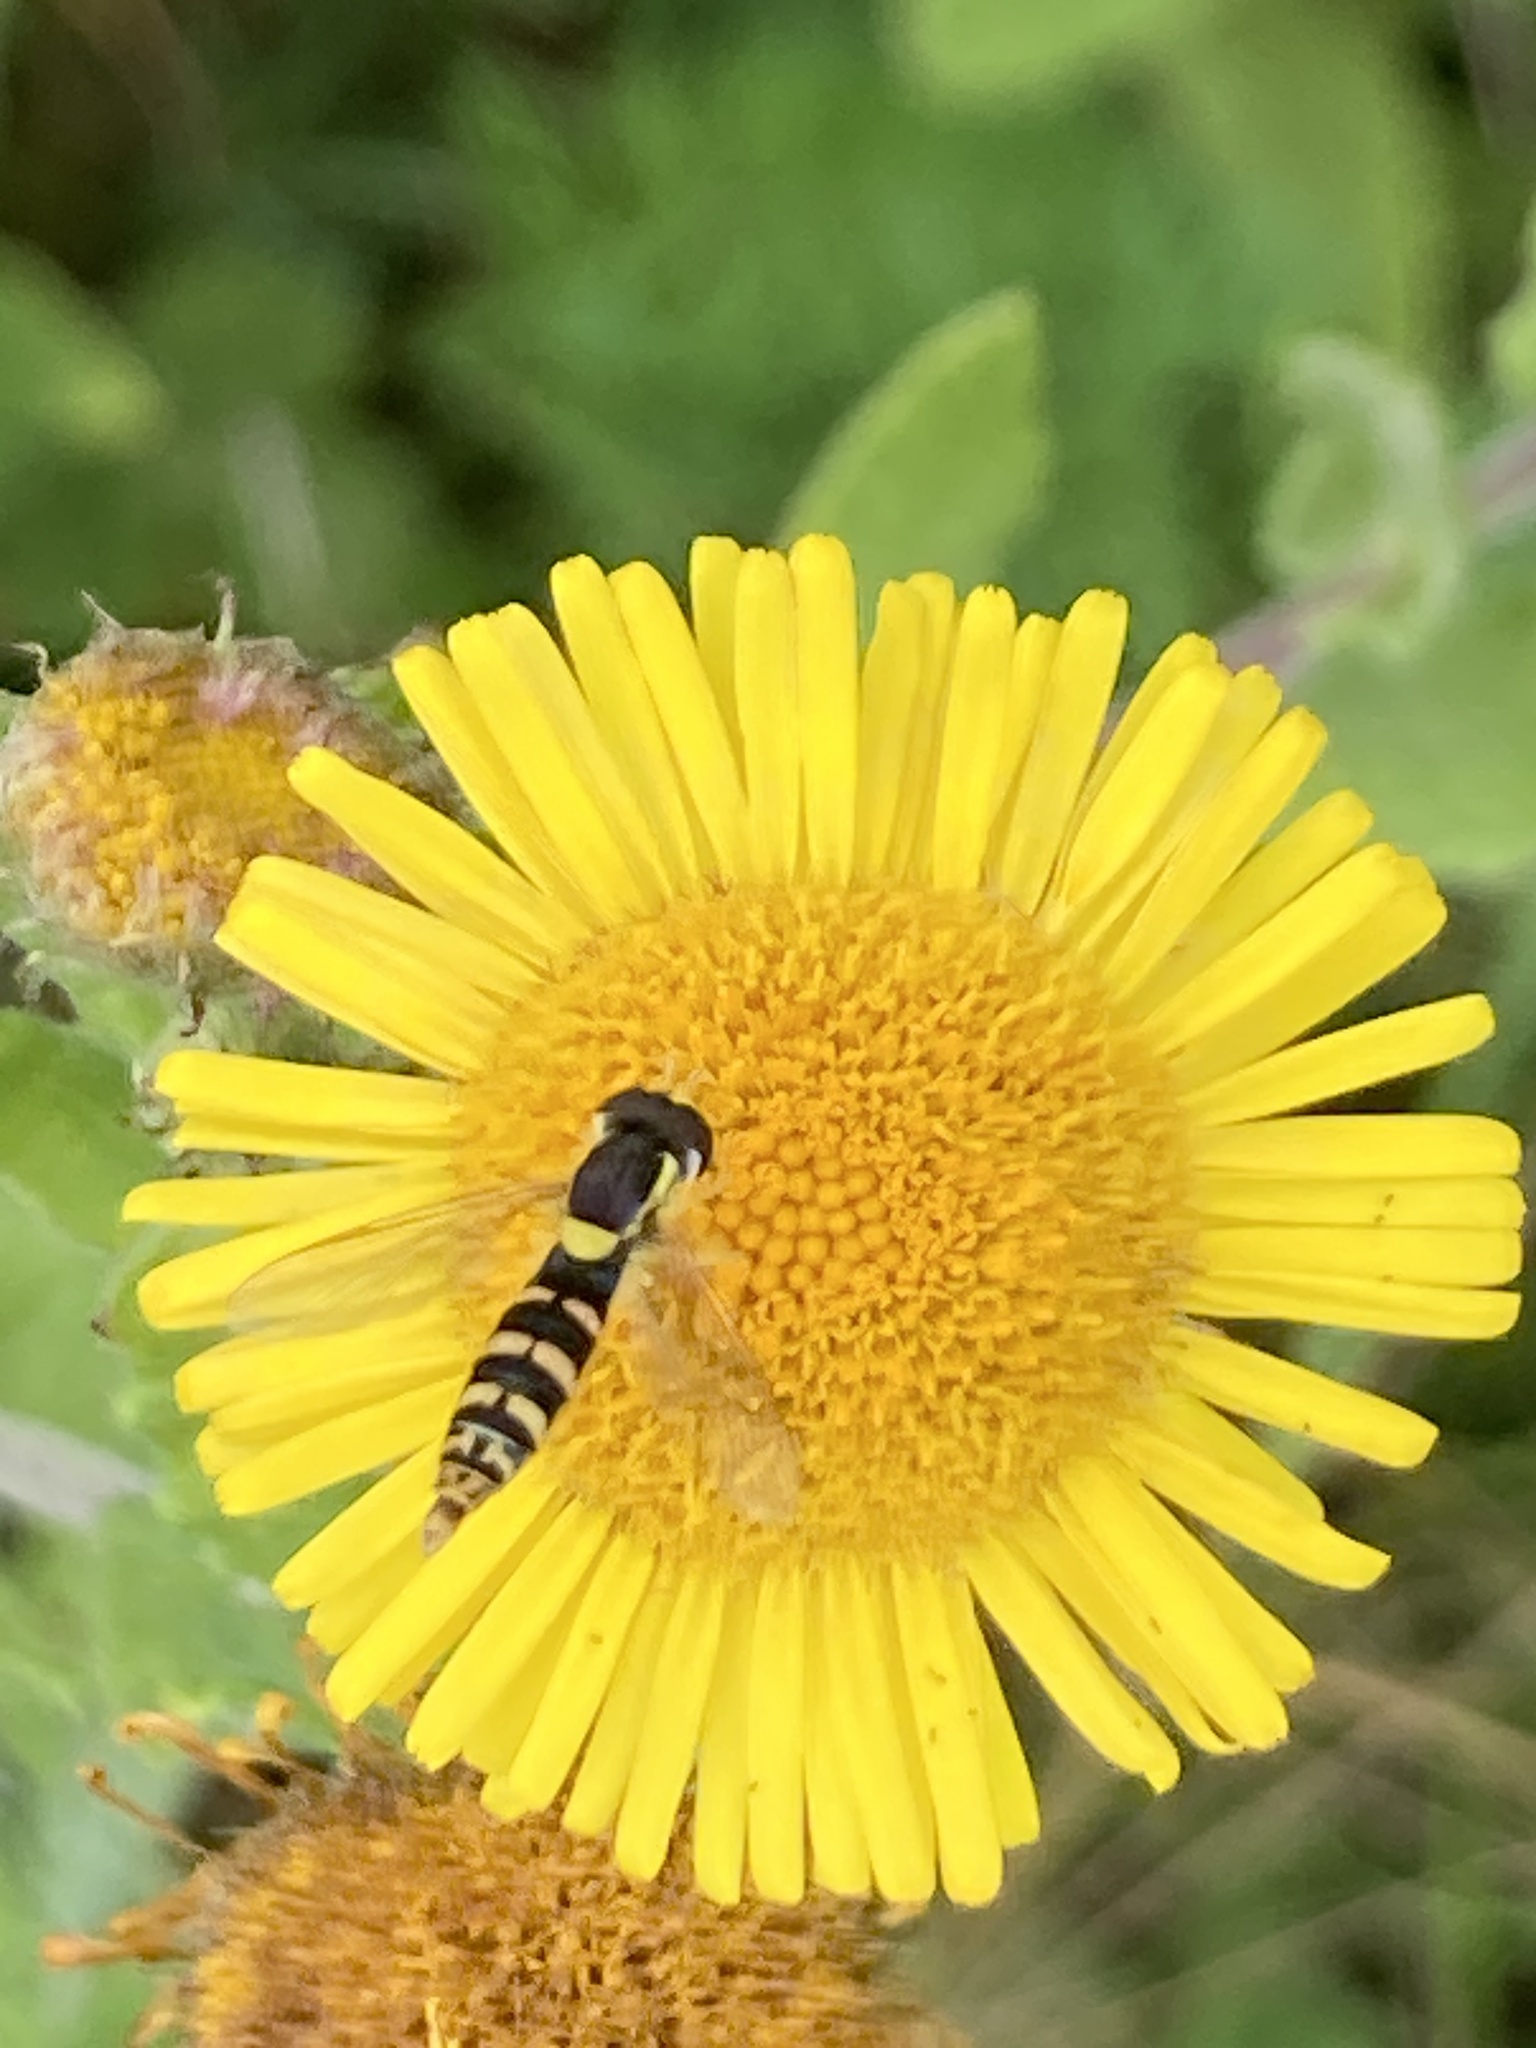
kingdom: Animalia
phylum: Arthropoda
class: Insecta
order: Diptera
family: Syrphidae
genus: Sphaerophoria
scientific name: Sphaerophoria
